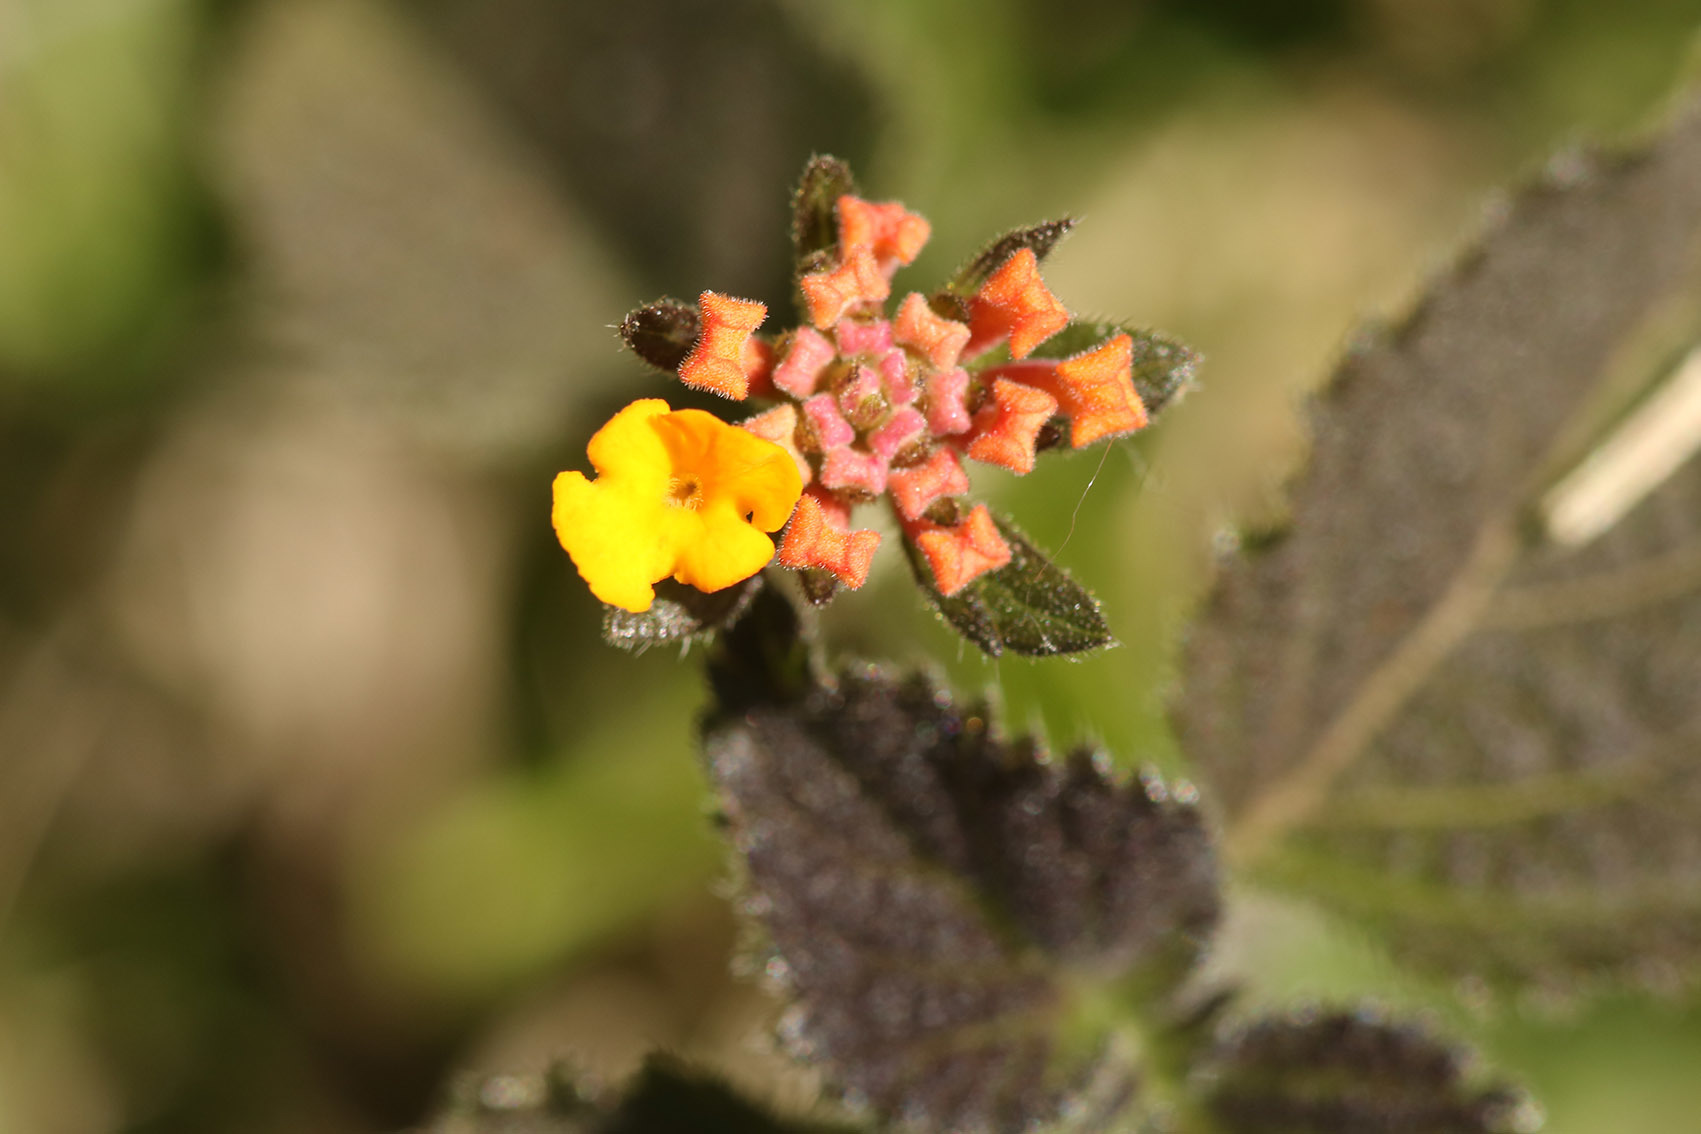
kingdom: Plantae
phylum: Tracheophyta
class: Magnoliopsida
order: Lamiales
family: Verbenaceae
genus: Lantana
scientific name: Lantana camara
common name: Lantana
